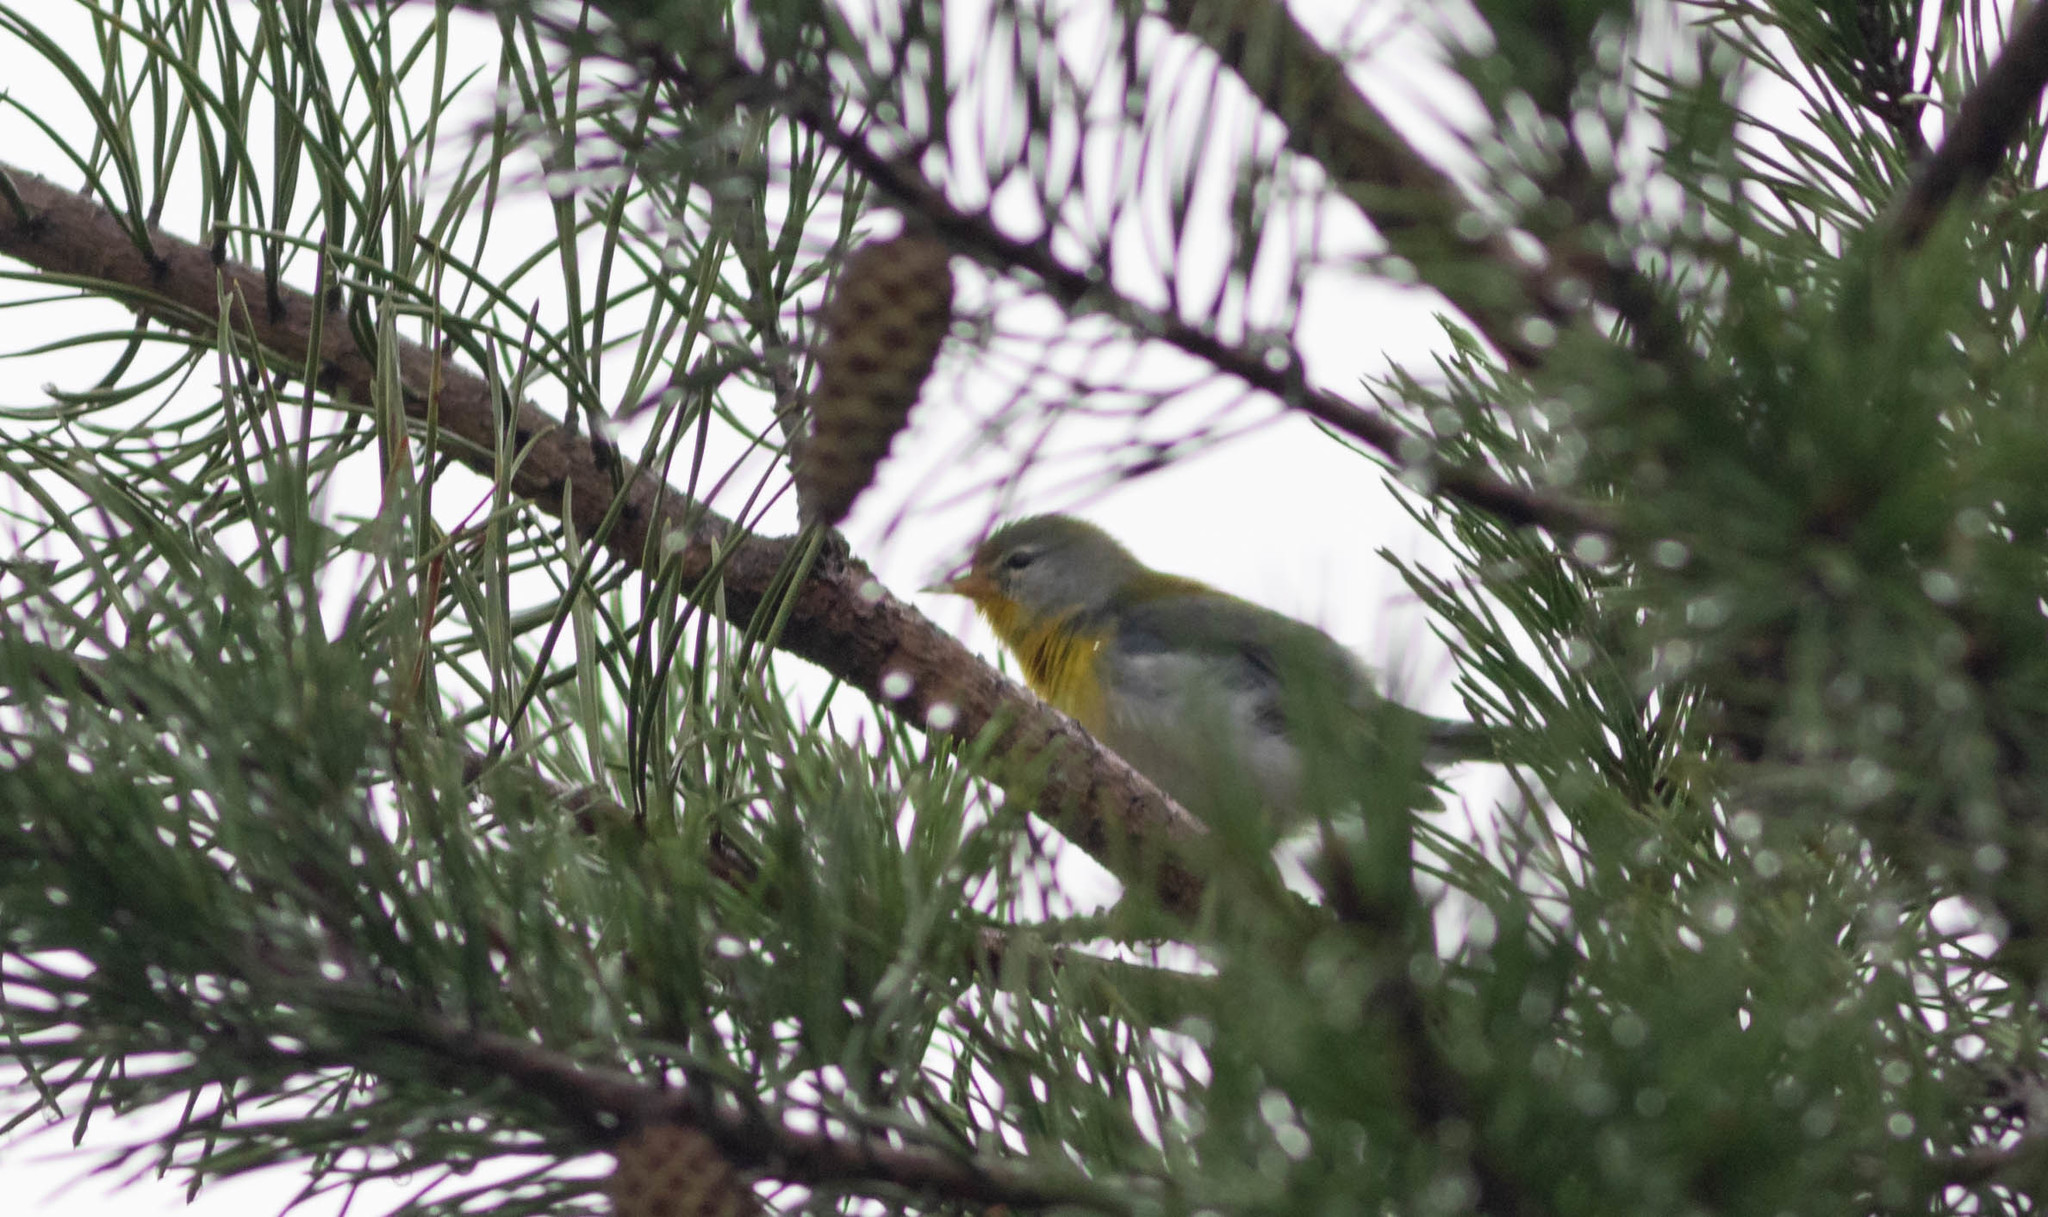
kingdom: Animalia
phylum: Chordata
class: Aves
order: Passeriformes
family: Parulidae
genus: Setophaga
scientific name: Setophaga americana
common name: Northern parula
